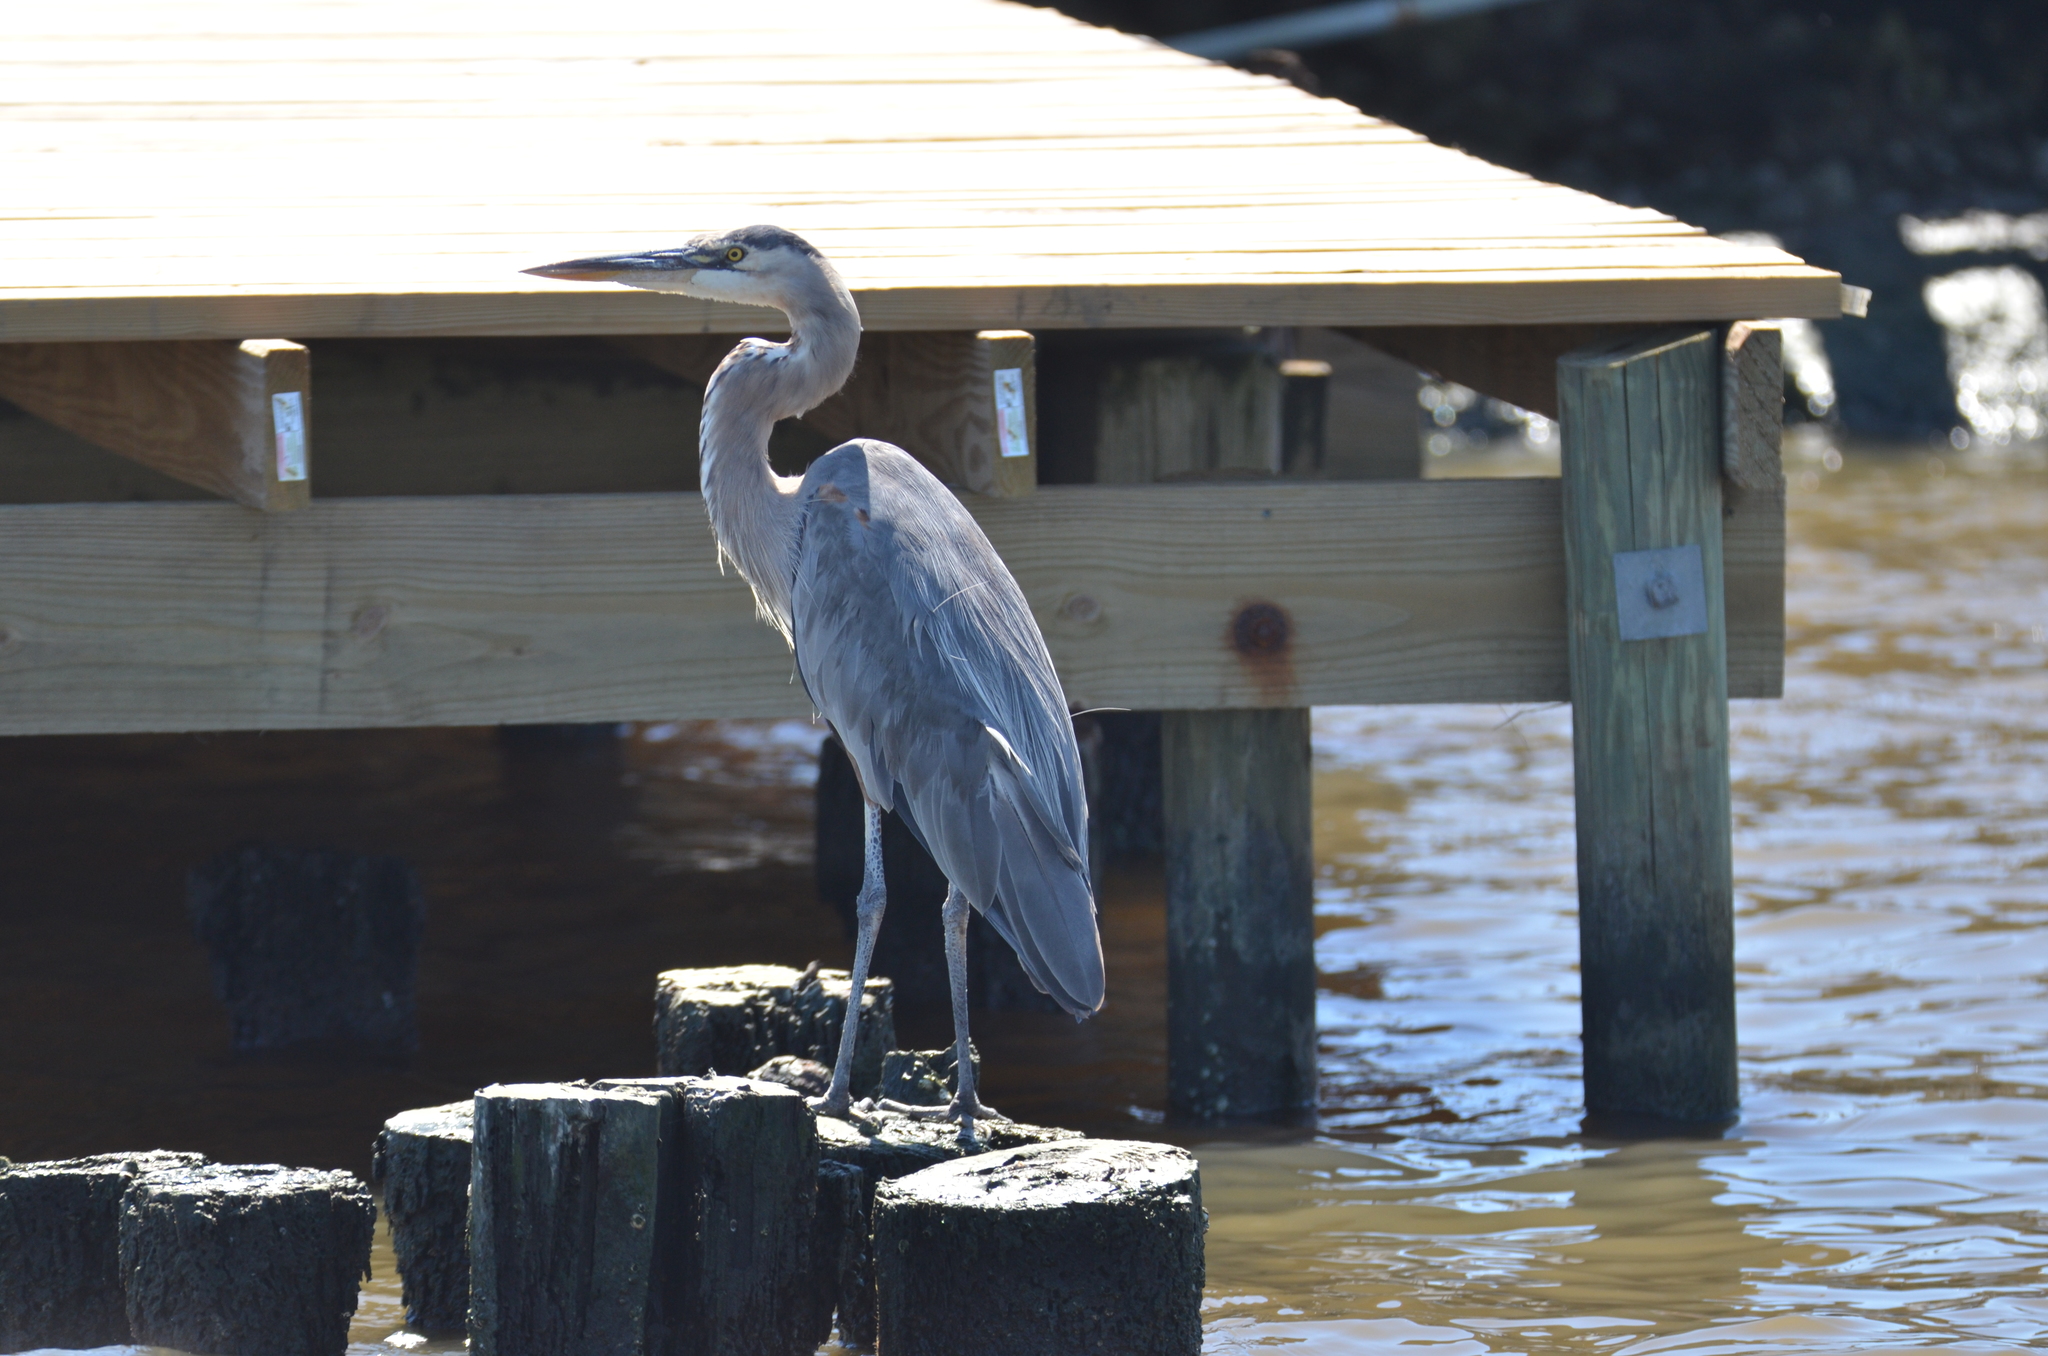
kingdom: Animalia
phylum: Chordata
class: Aves
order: Pelecaniformes
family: Ardeidae
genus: Ardea
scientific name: Ardea herodias
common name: Great blue heron
